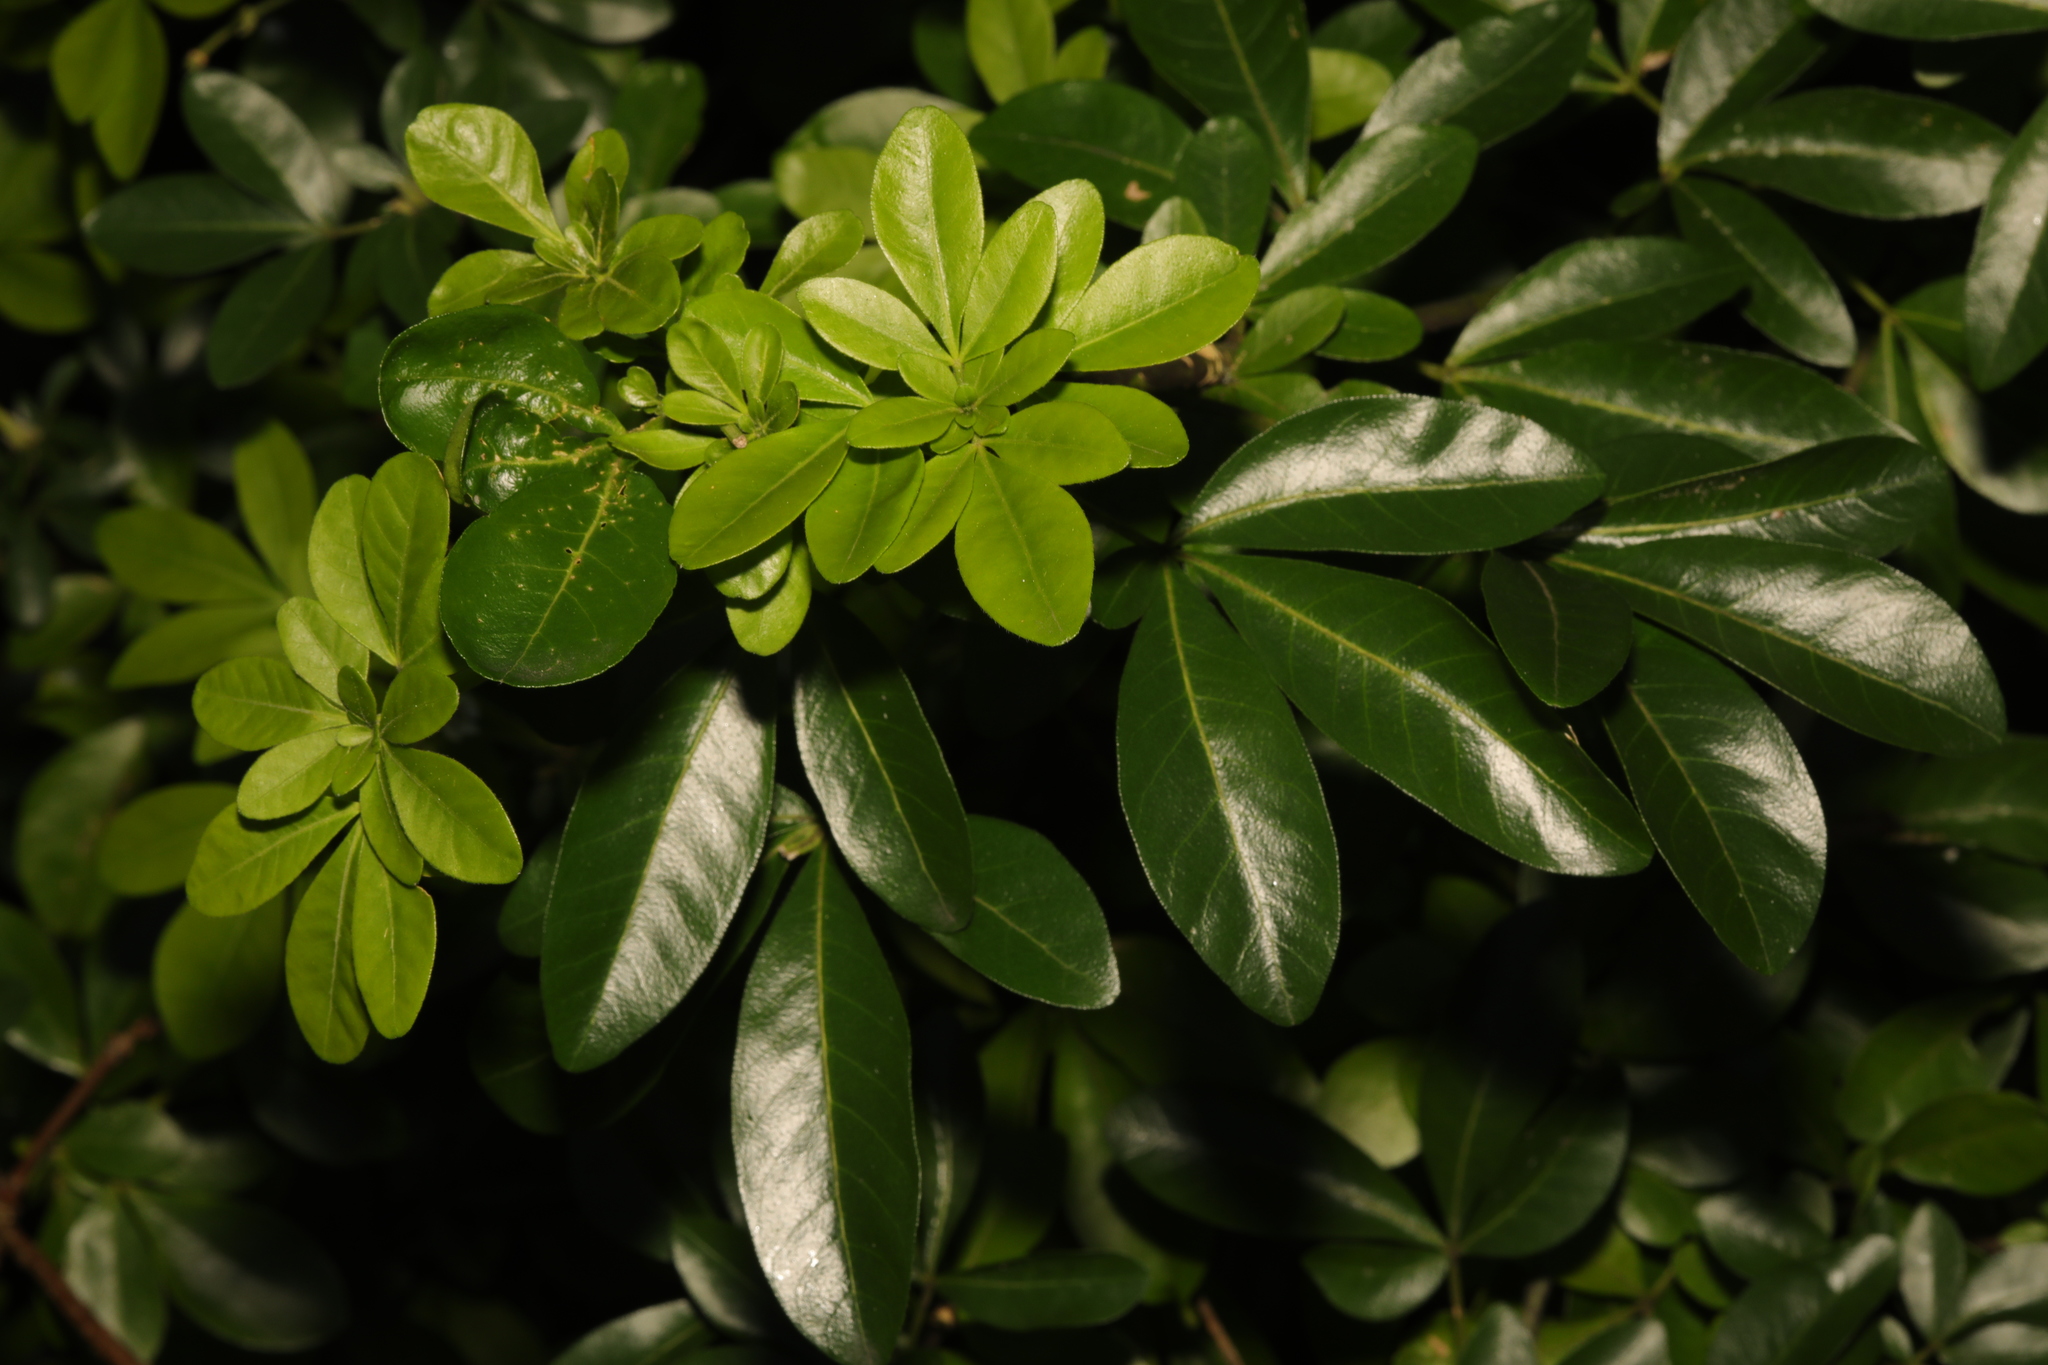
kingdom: Plantae
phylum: Tracheophyta
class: Magnoliopsida
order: Sapindales
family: Rutaceae
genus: Choisya
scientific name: Choisya ternata
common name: Mexican orange
